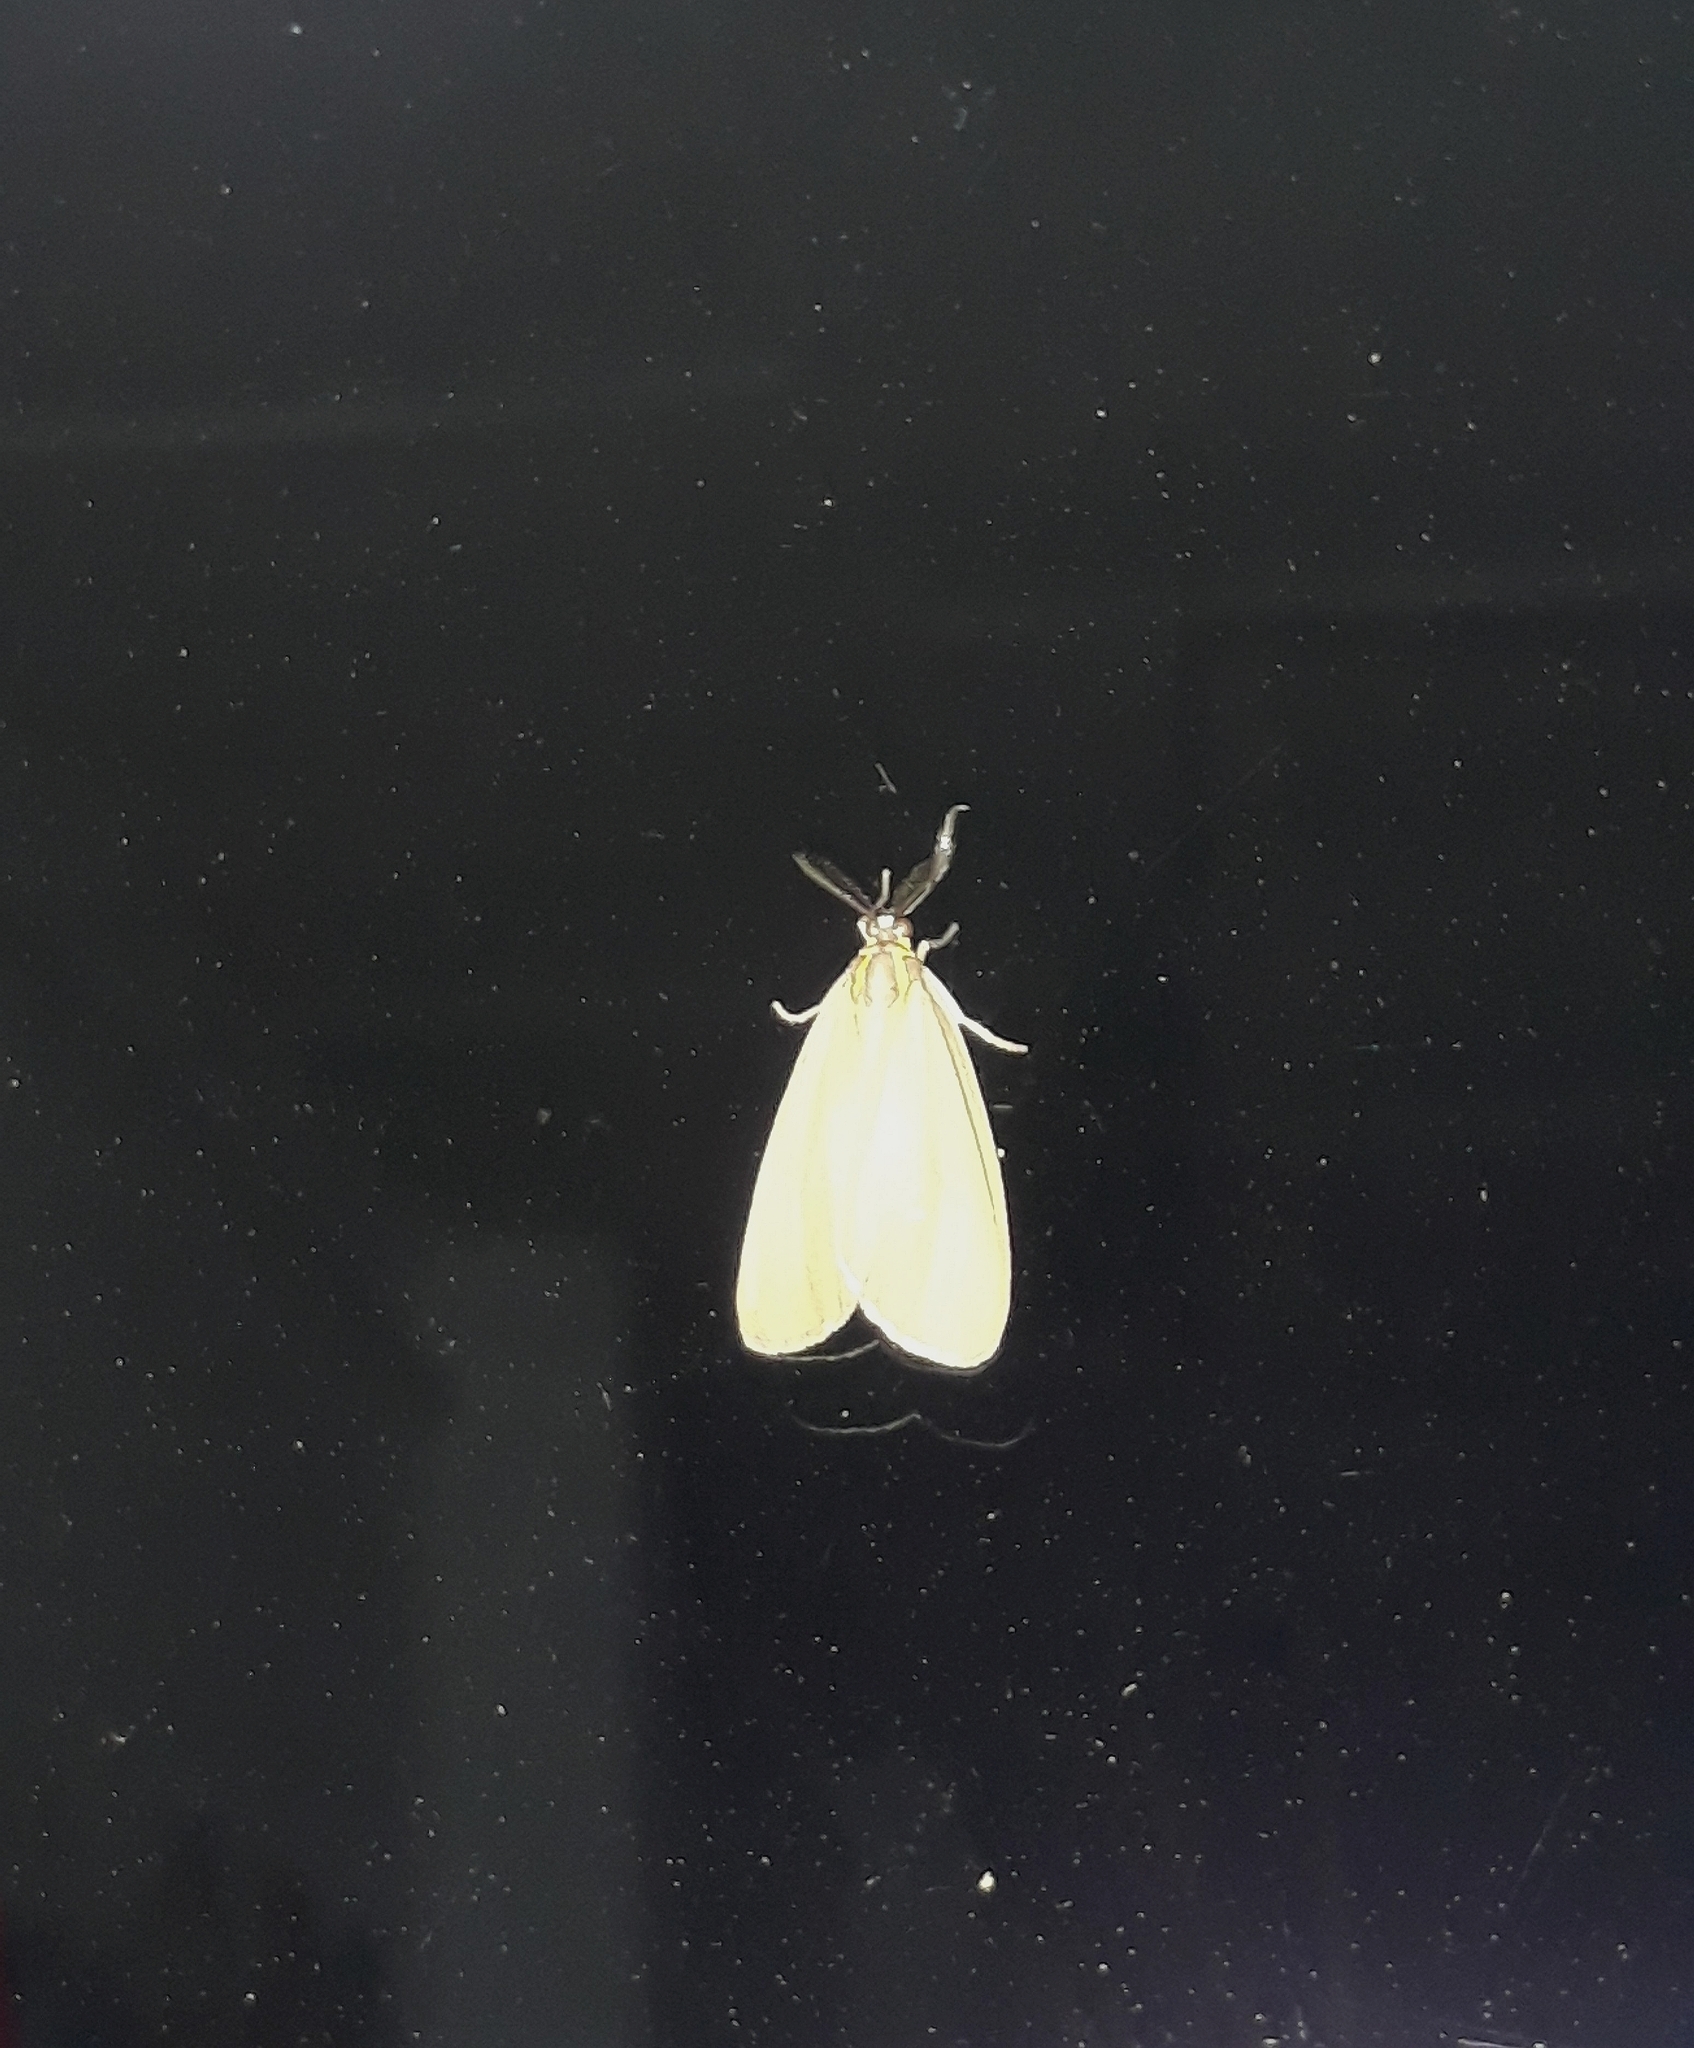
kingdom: Animalia
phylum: Arthropoda
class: Insecta
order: Lepidoptera
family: Notodontidae
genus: Josia
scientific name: Josia mononeura
